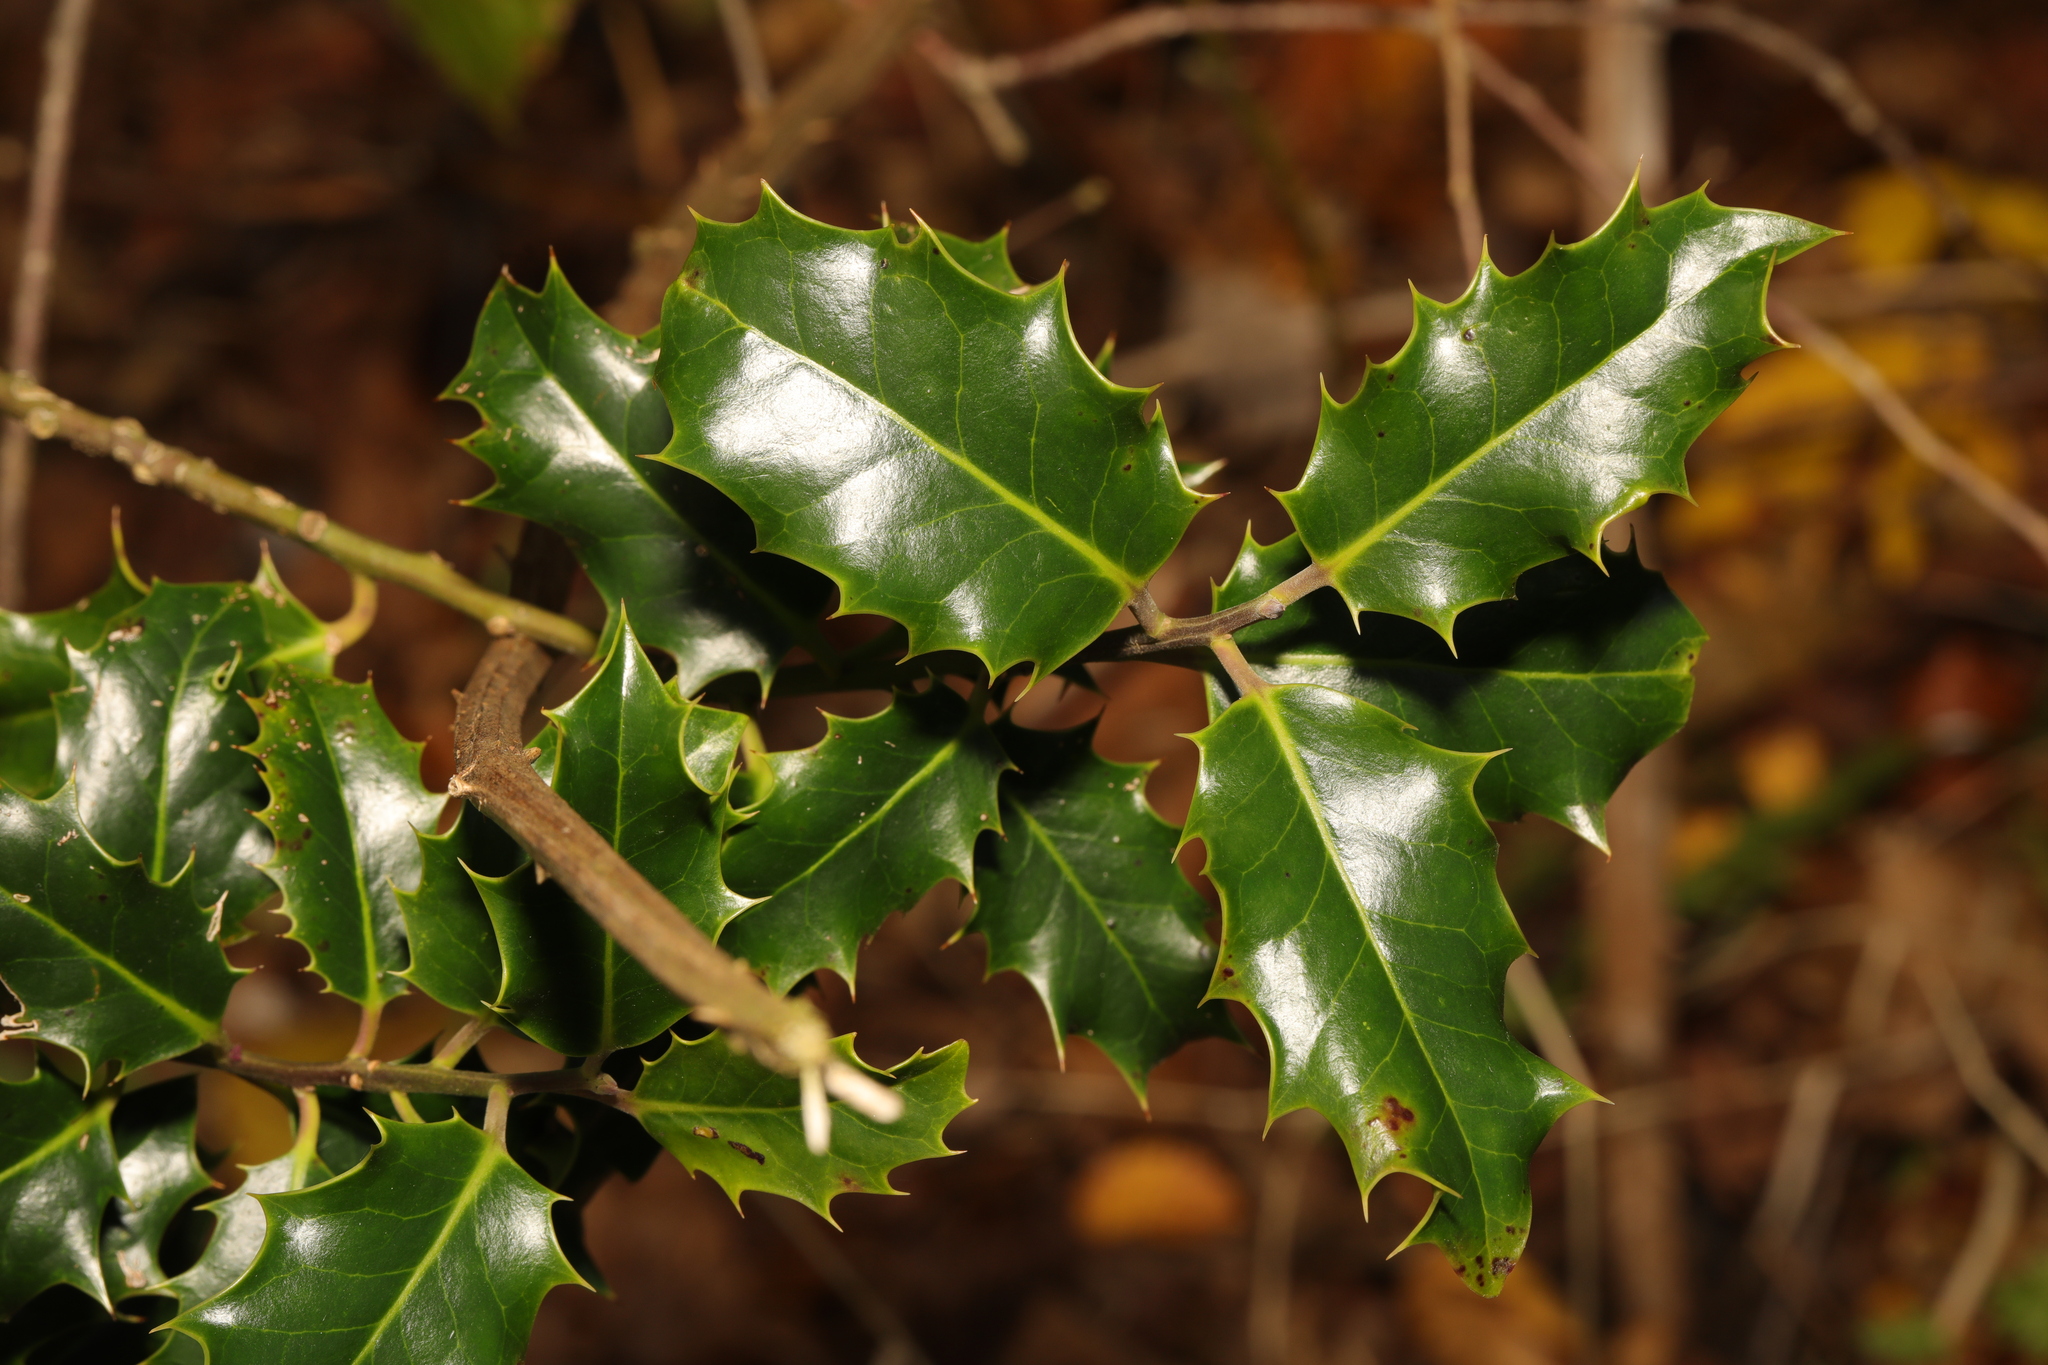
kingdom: Plantae
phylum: Tracheophyta
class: Magnoliopsida
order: Aquifoliales
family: Aquifoliaceae
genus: Ilex
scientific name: Ilex aquifolium
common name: English holly
